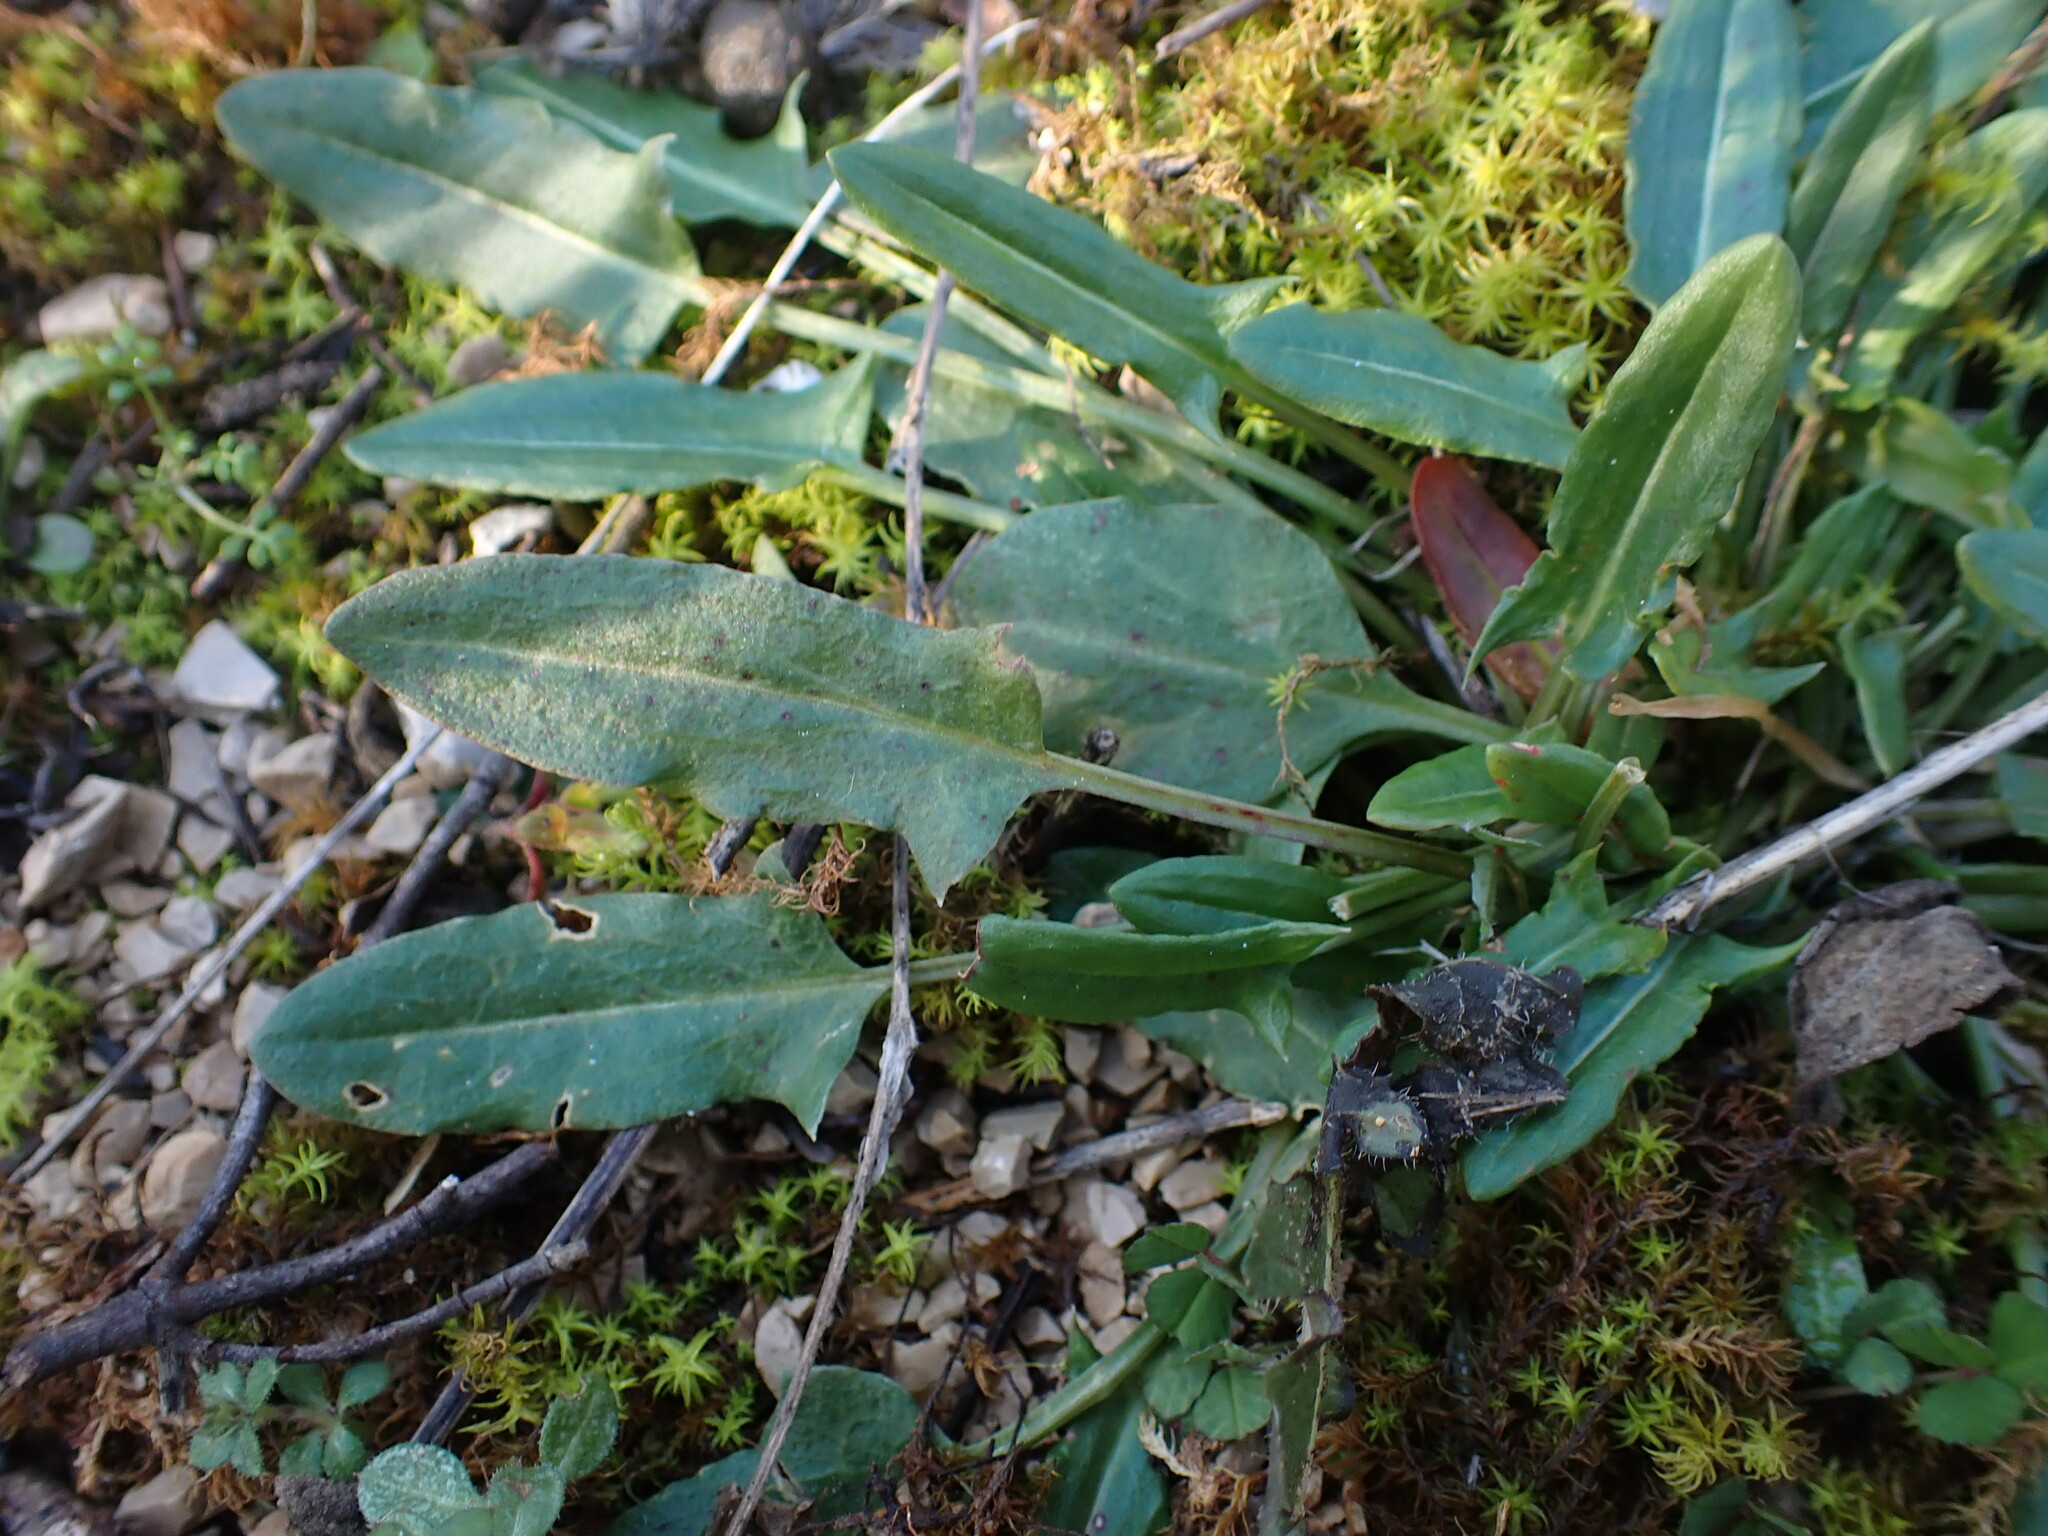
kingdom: Plantae
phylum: Tracheophyta
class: Magnoliopsida
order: Caryophyllales
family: Polygonaceae
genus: Rumex
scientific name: Rumex acetosa
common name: Garden sorrel
